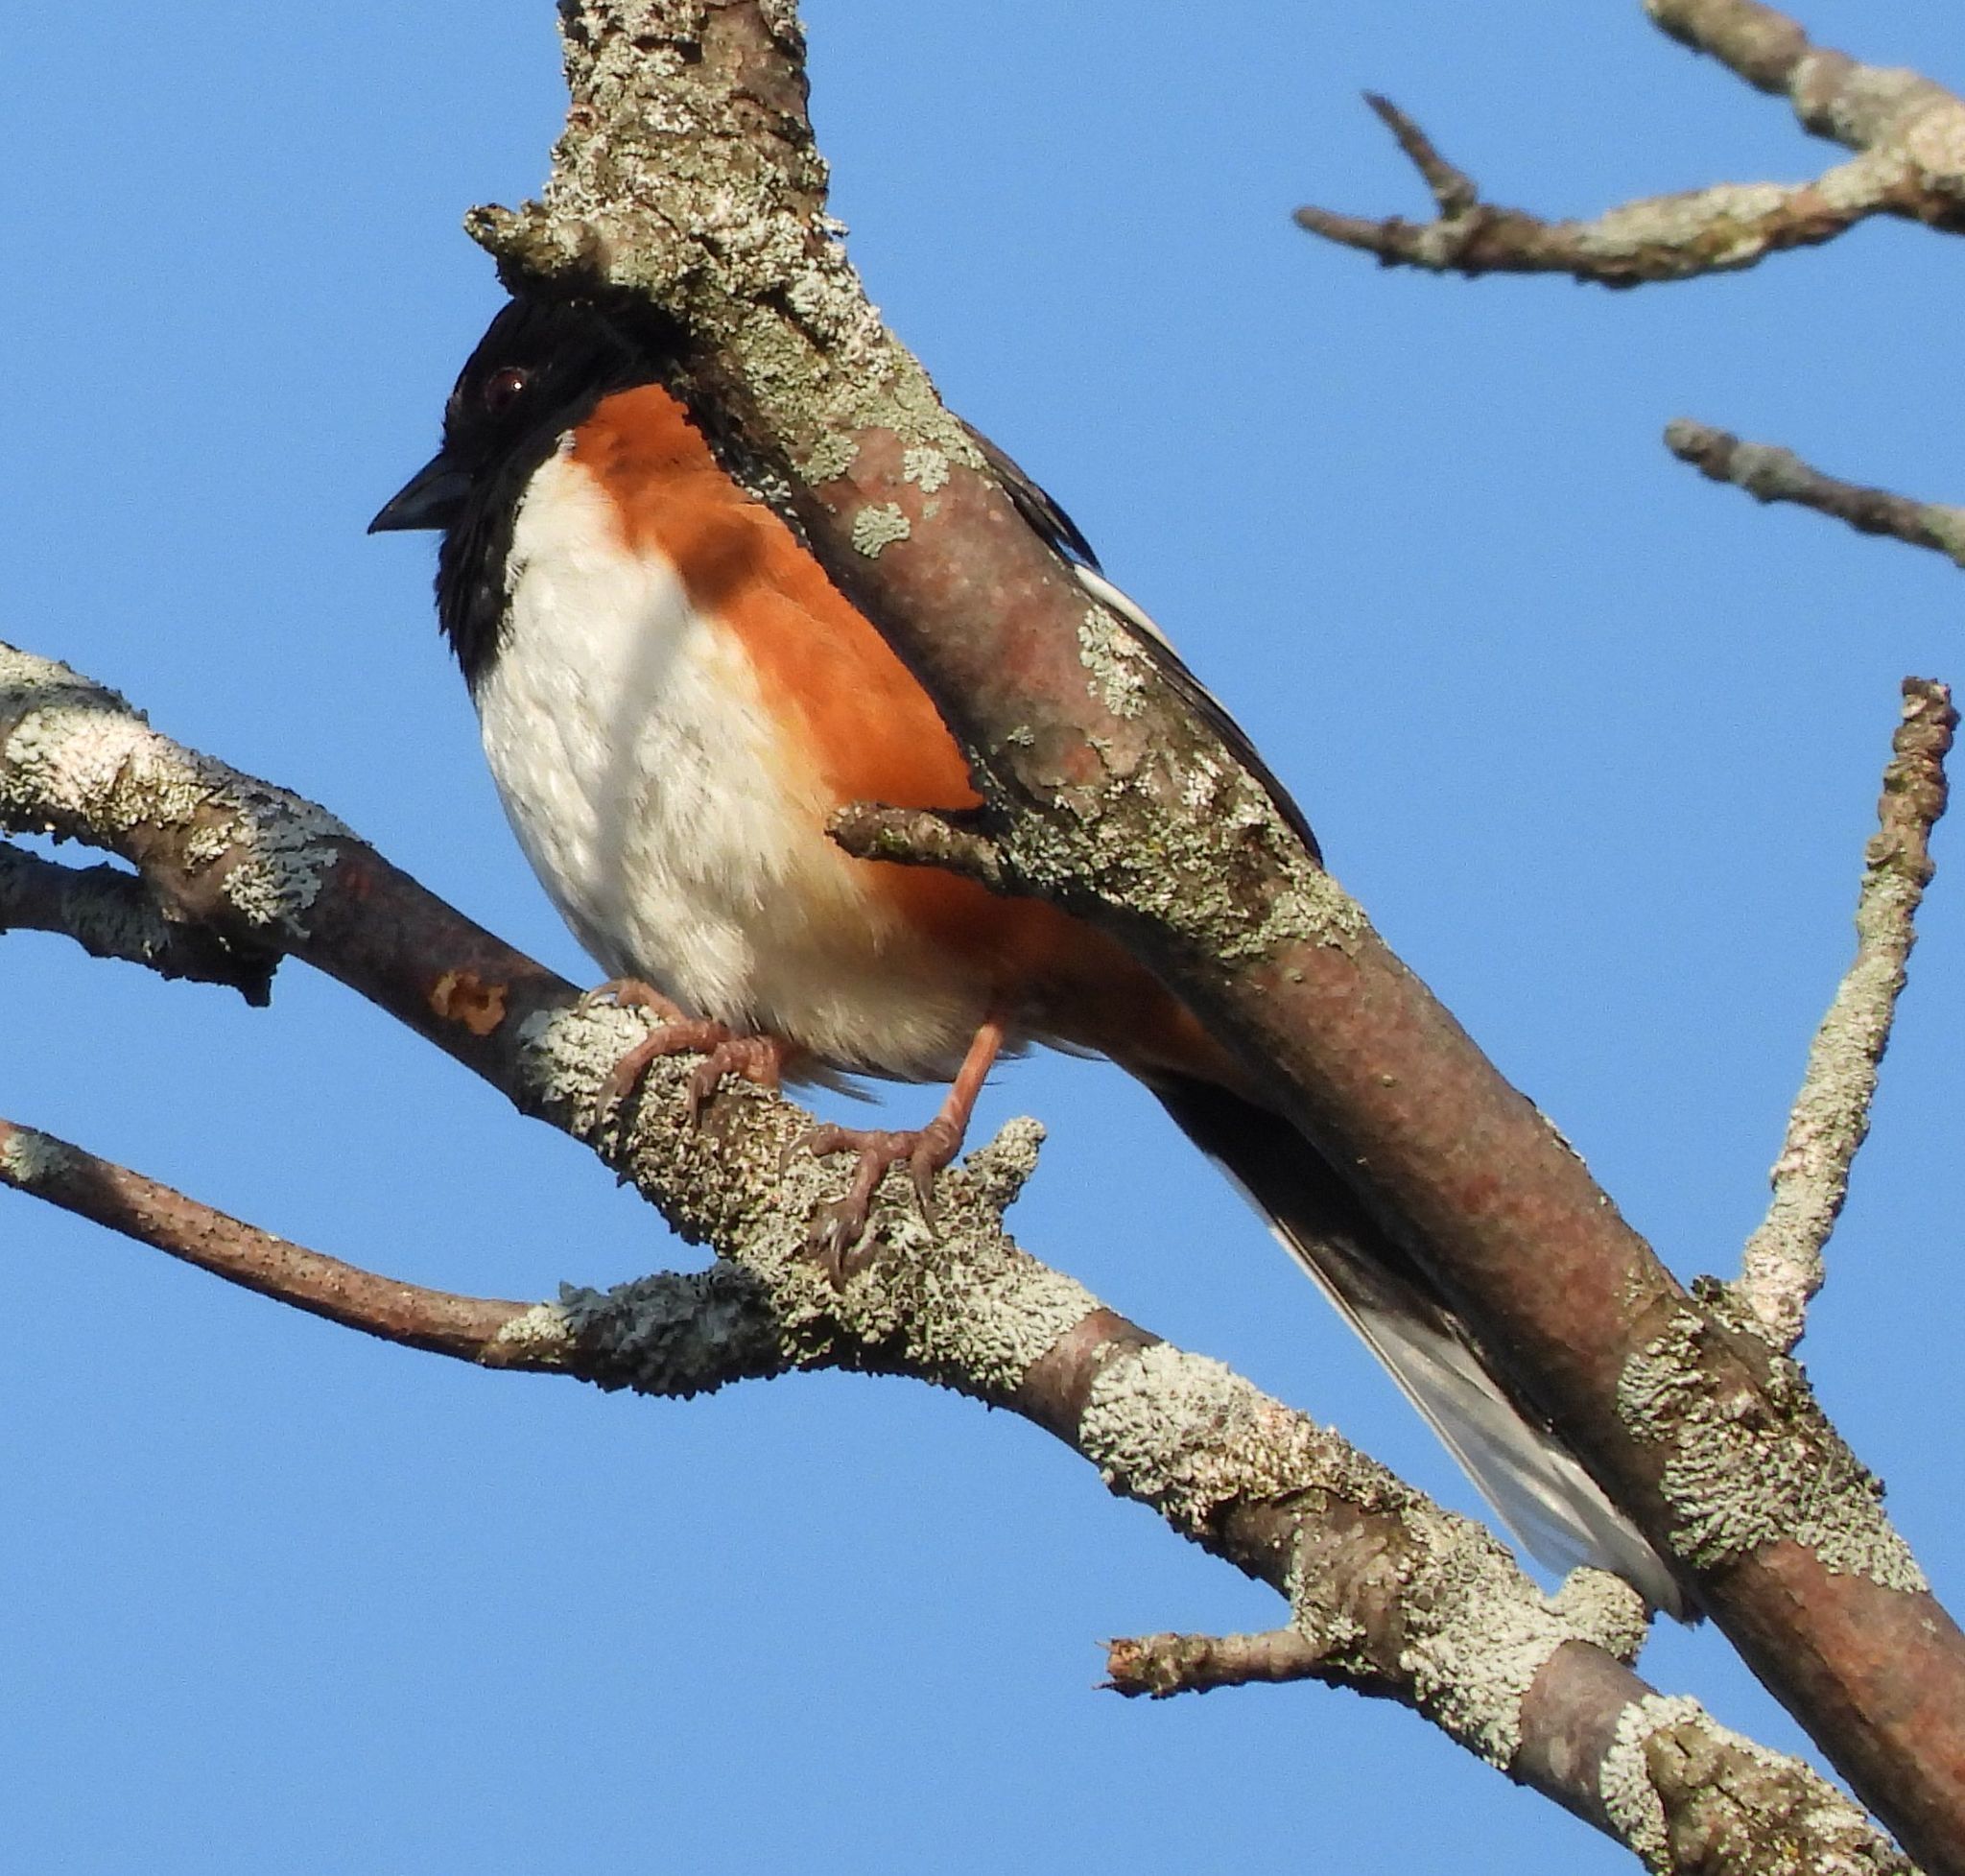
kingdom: Animalia
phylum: Chordata
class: Aves
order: Passeriformes
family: Passerellidae
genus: Pipilo
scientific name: Pipilo erythrophthalmus
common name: Eastern towhee
